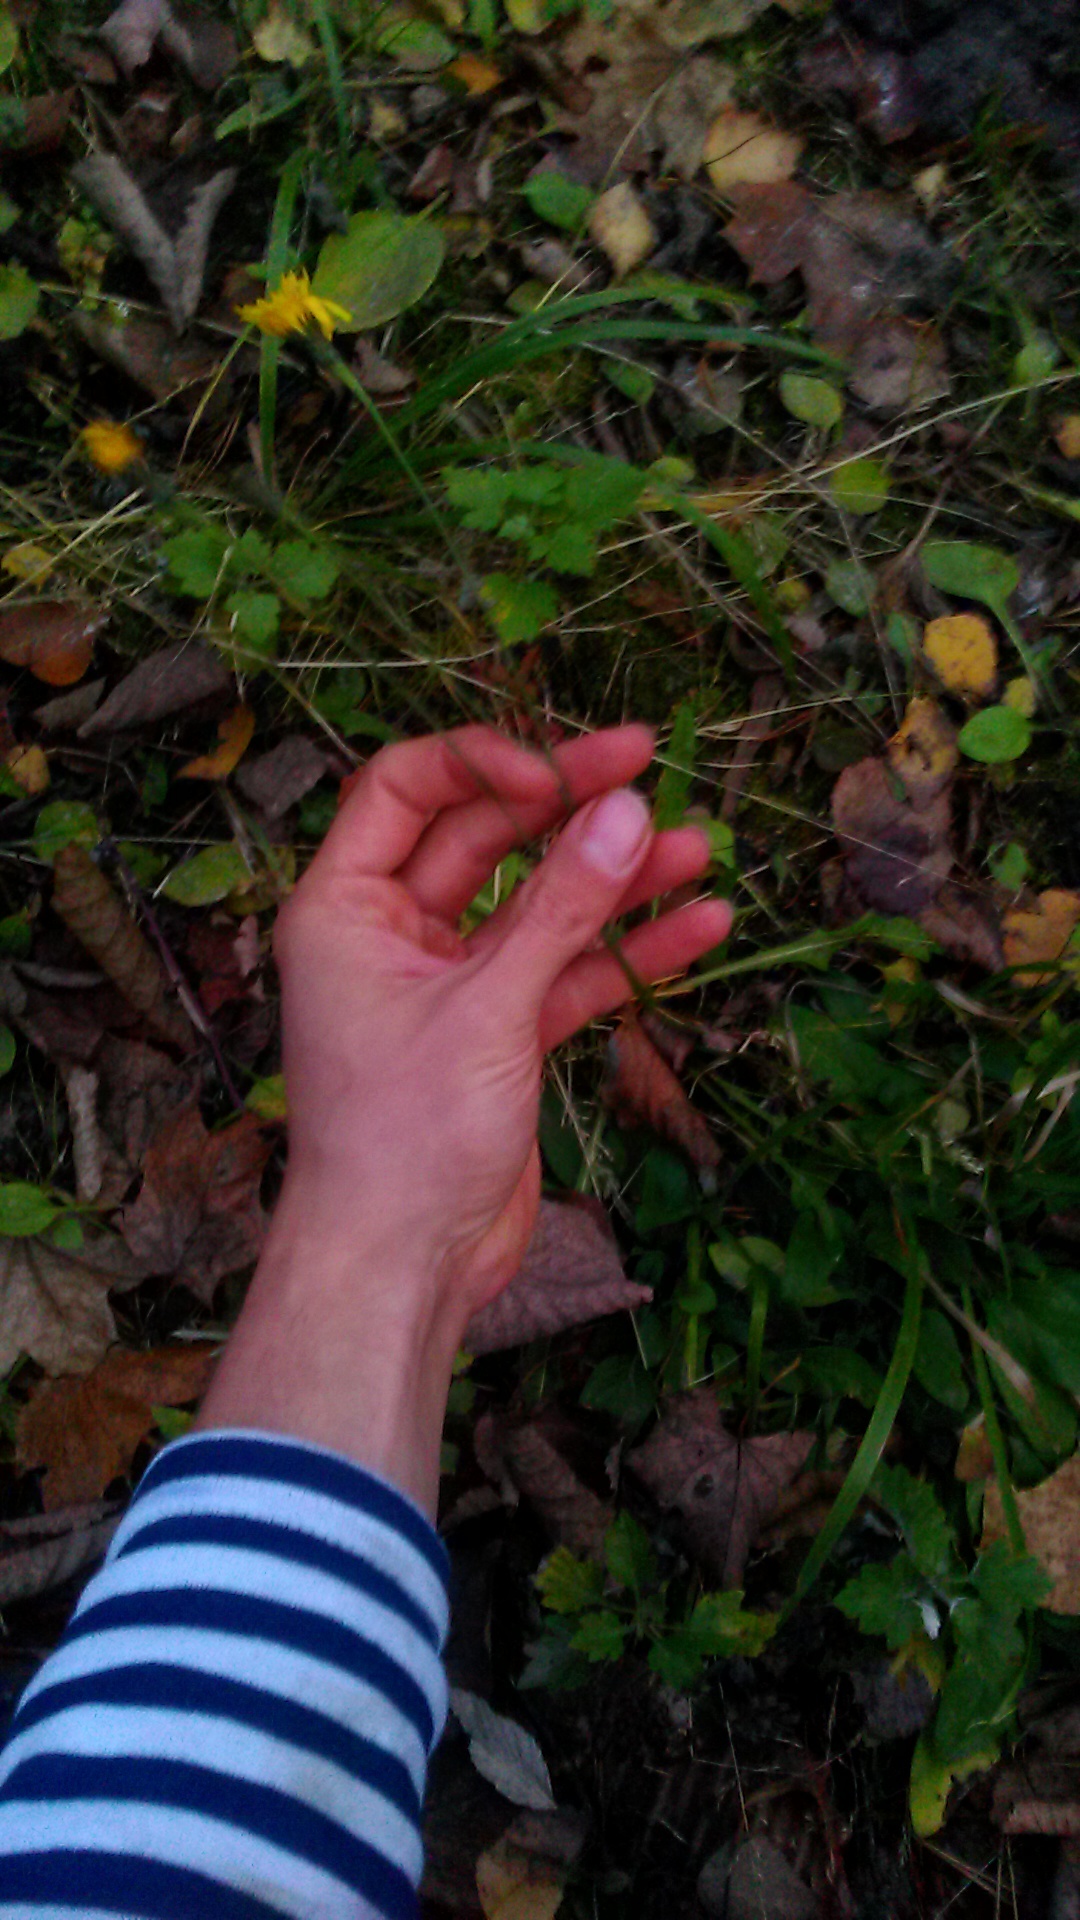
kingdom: Plantae
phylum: Tracheophyta
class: Magnoliopsida
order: Asterales
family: Asteraceae
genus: Scorzoneroides
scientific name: Scorzoneroides autumnalis
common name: Autumn hawkbit
